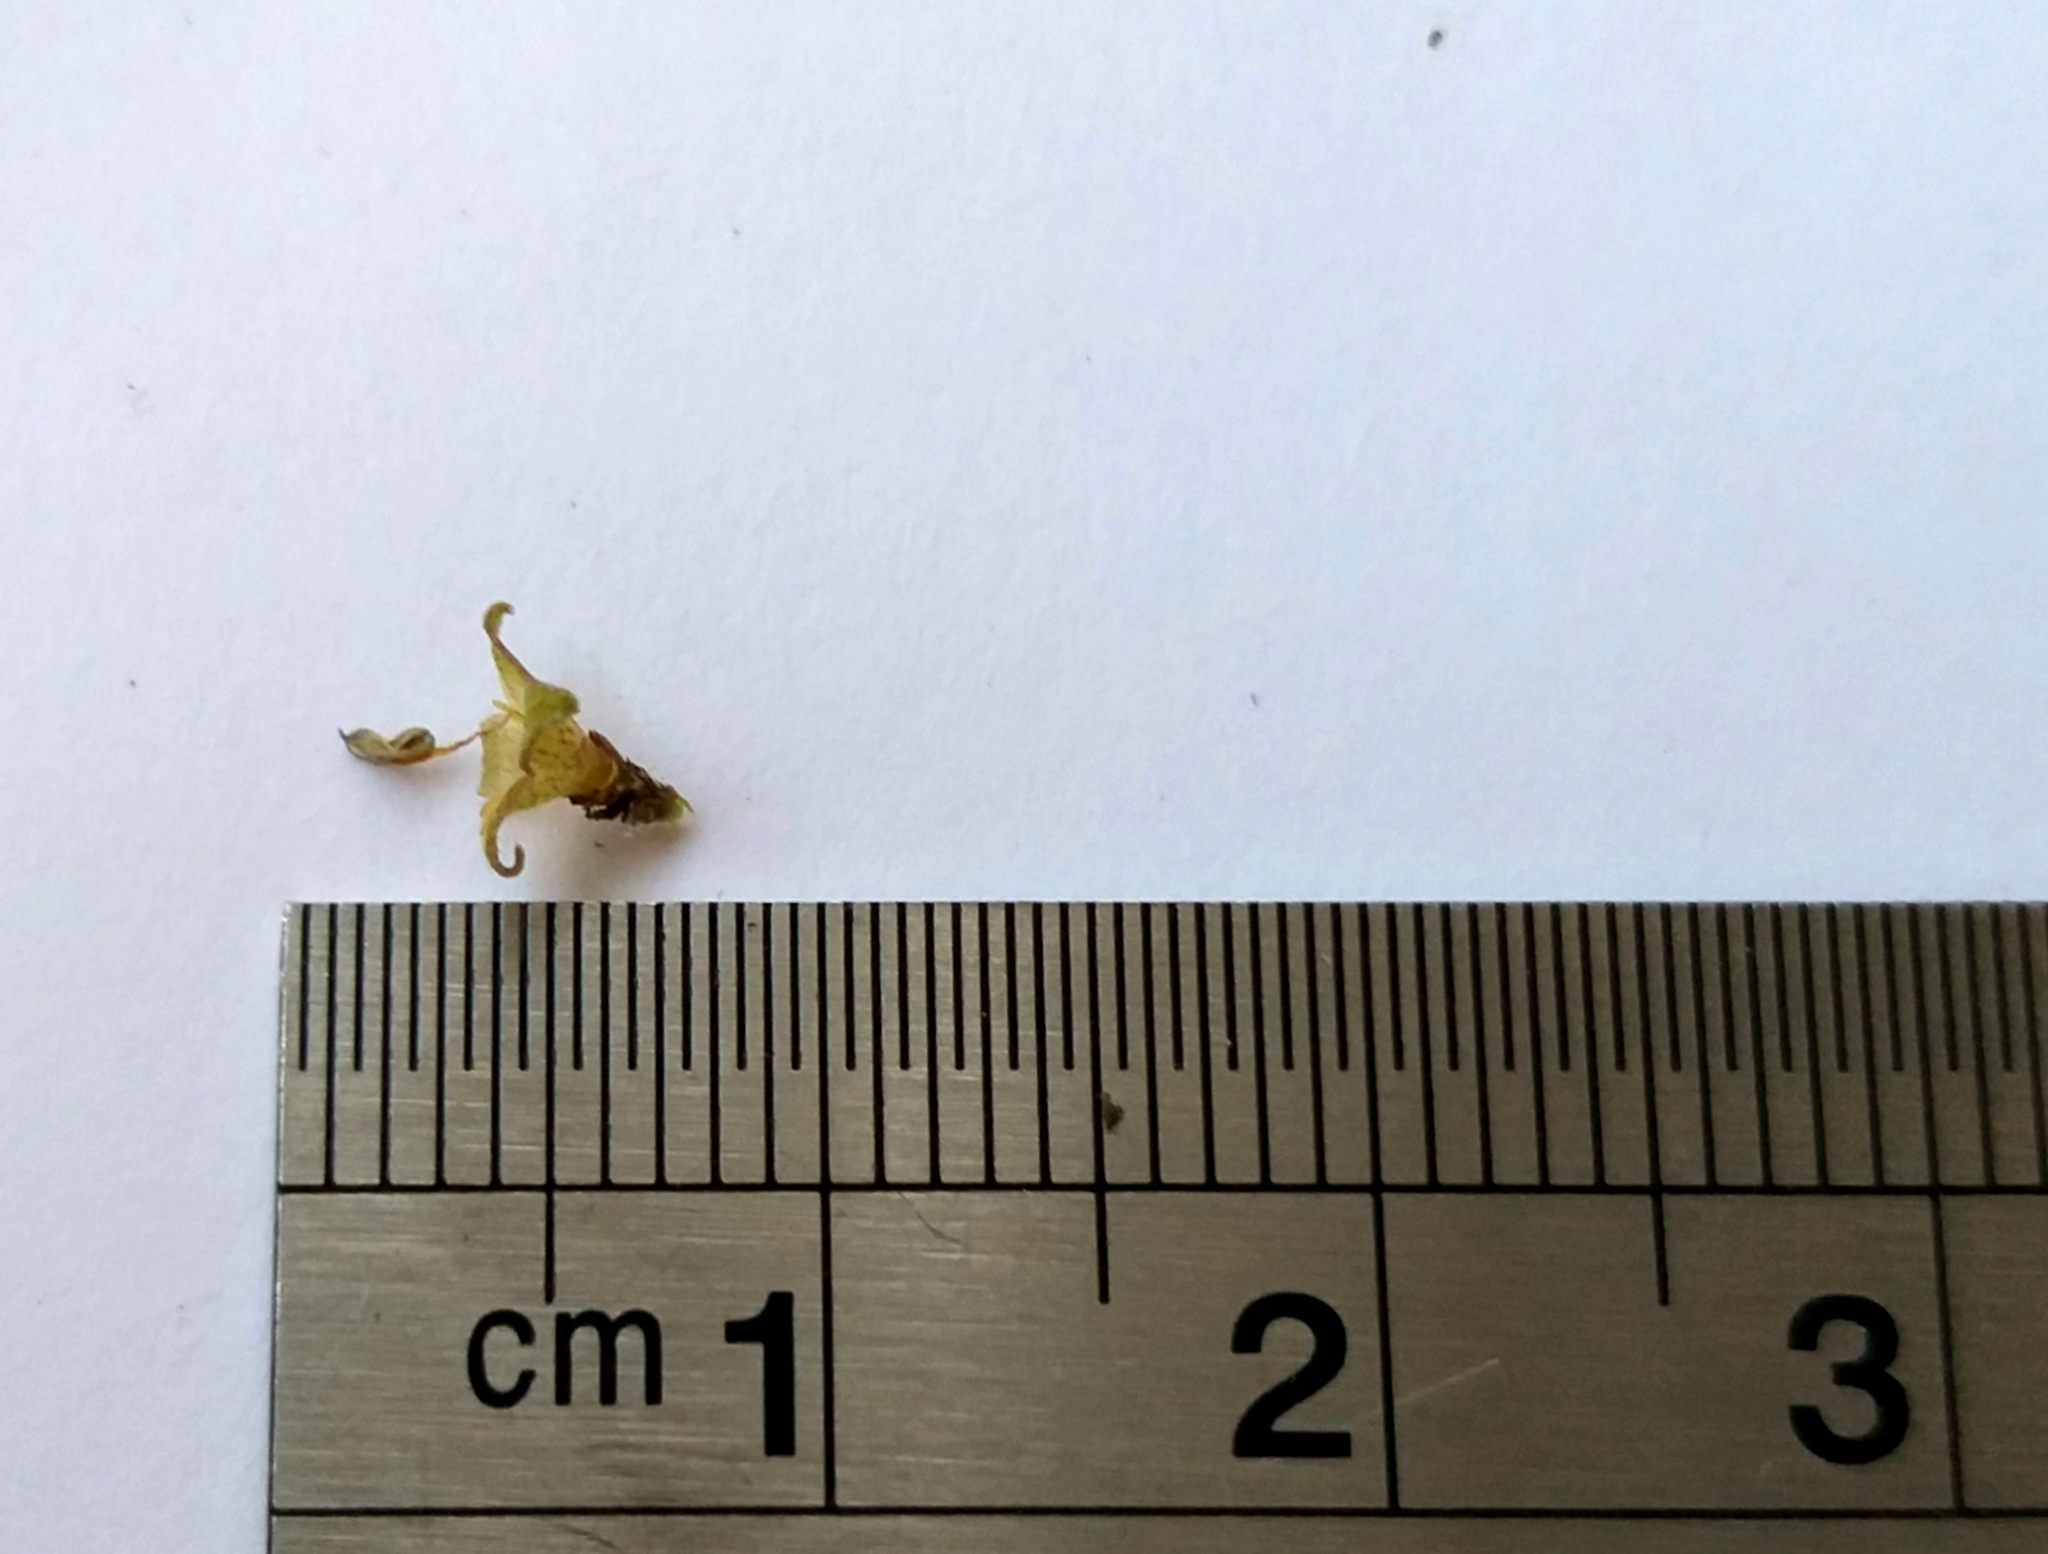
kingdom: Plantae
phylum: Tracheophyta
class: Magnoliopsida
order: Gentianales
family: Rubiaceae
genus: Coprosma
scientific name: Coprosma rotundifolia
